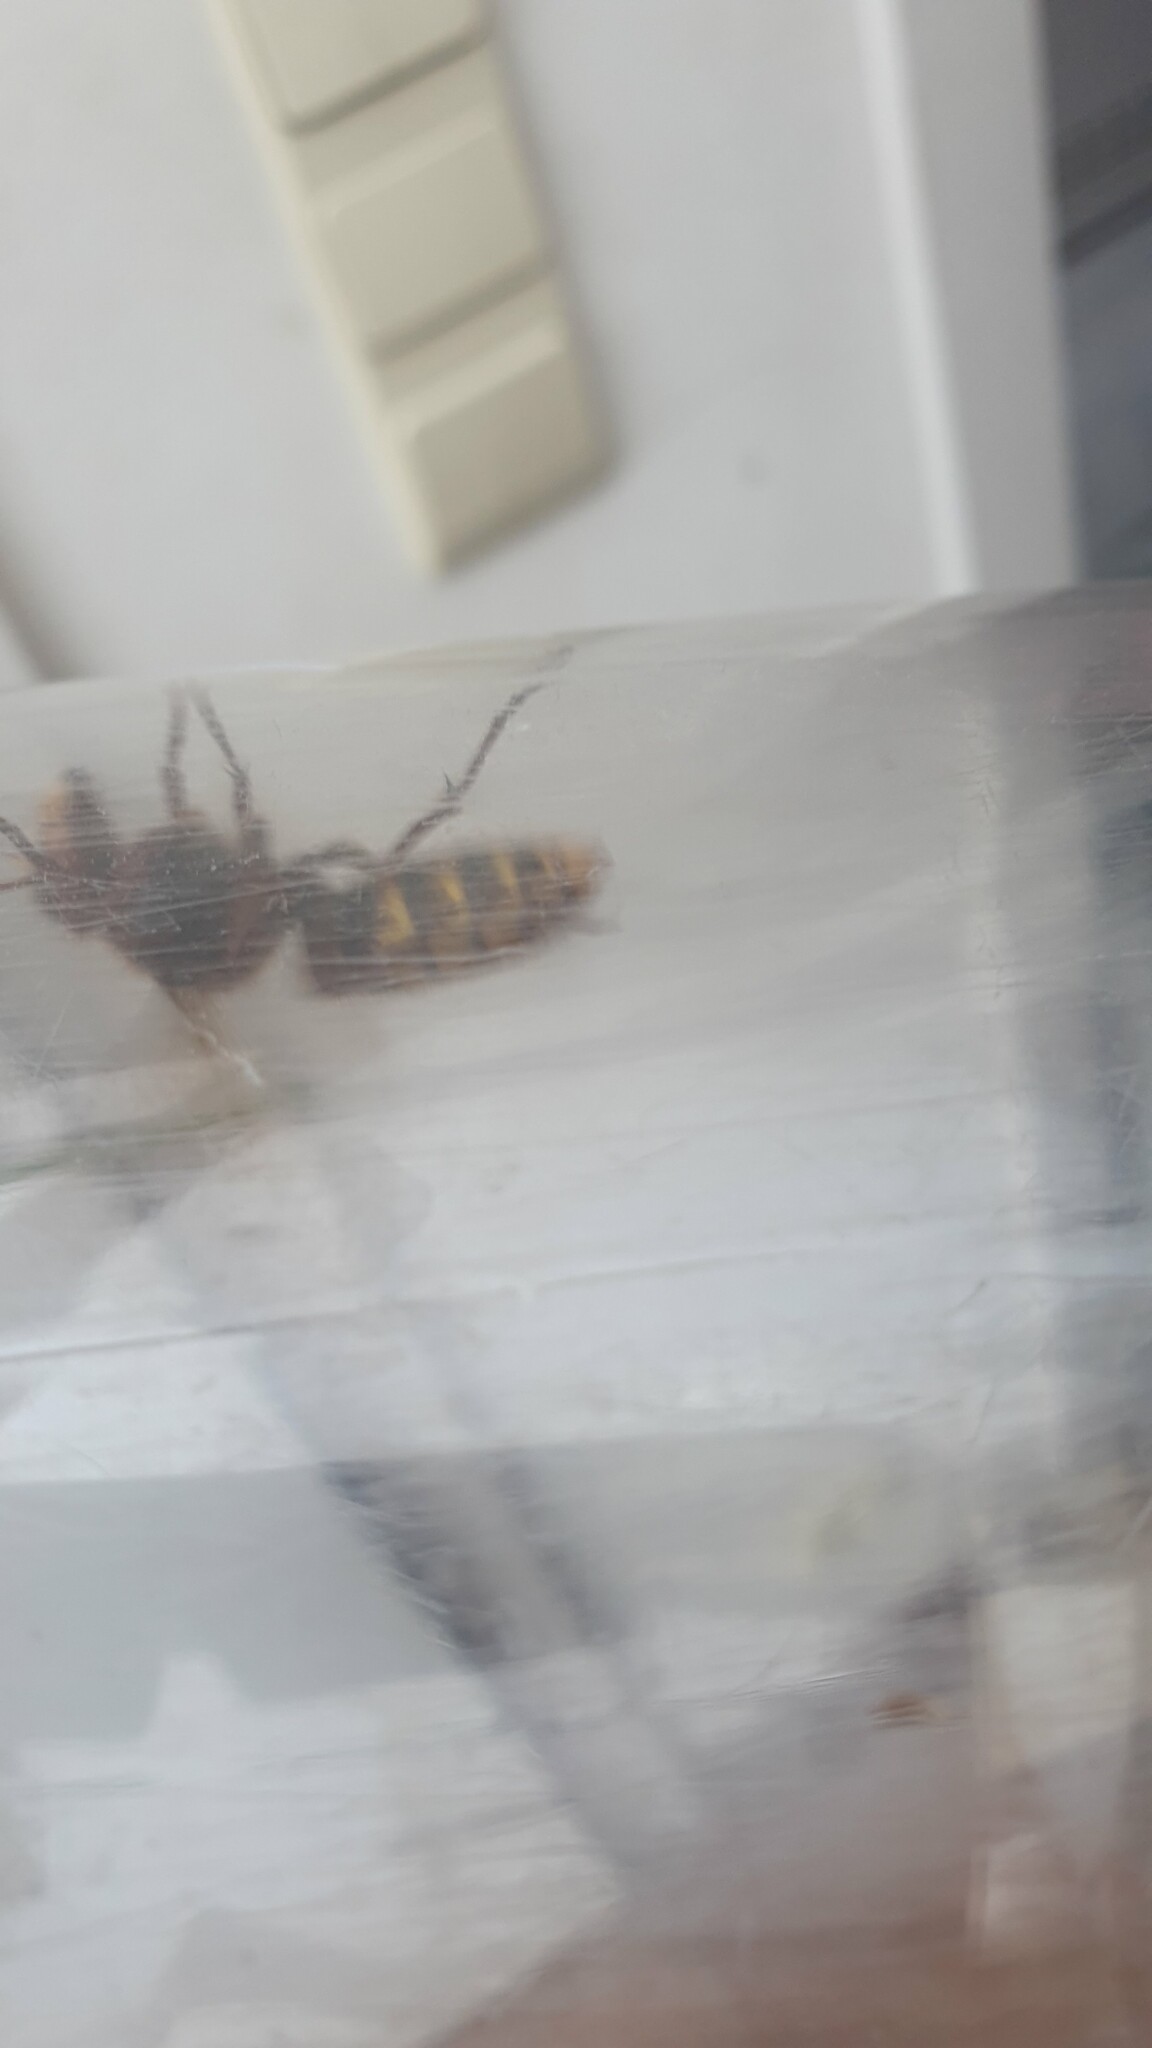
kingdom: Animalia
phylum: Arthropoda
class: Insecta
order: Hymenoptera
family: Vespidae
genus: Vespa
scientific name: Vespa crabro
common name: Hornet
